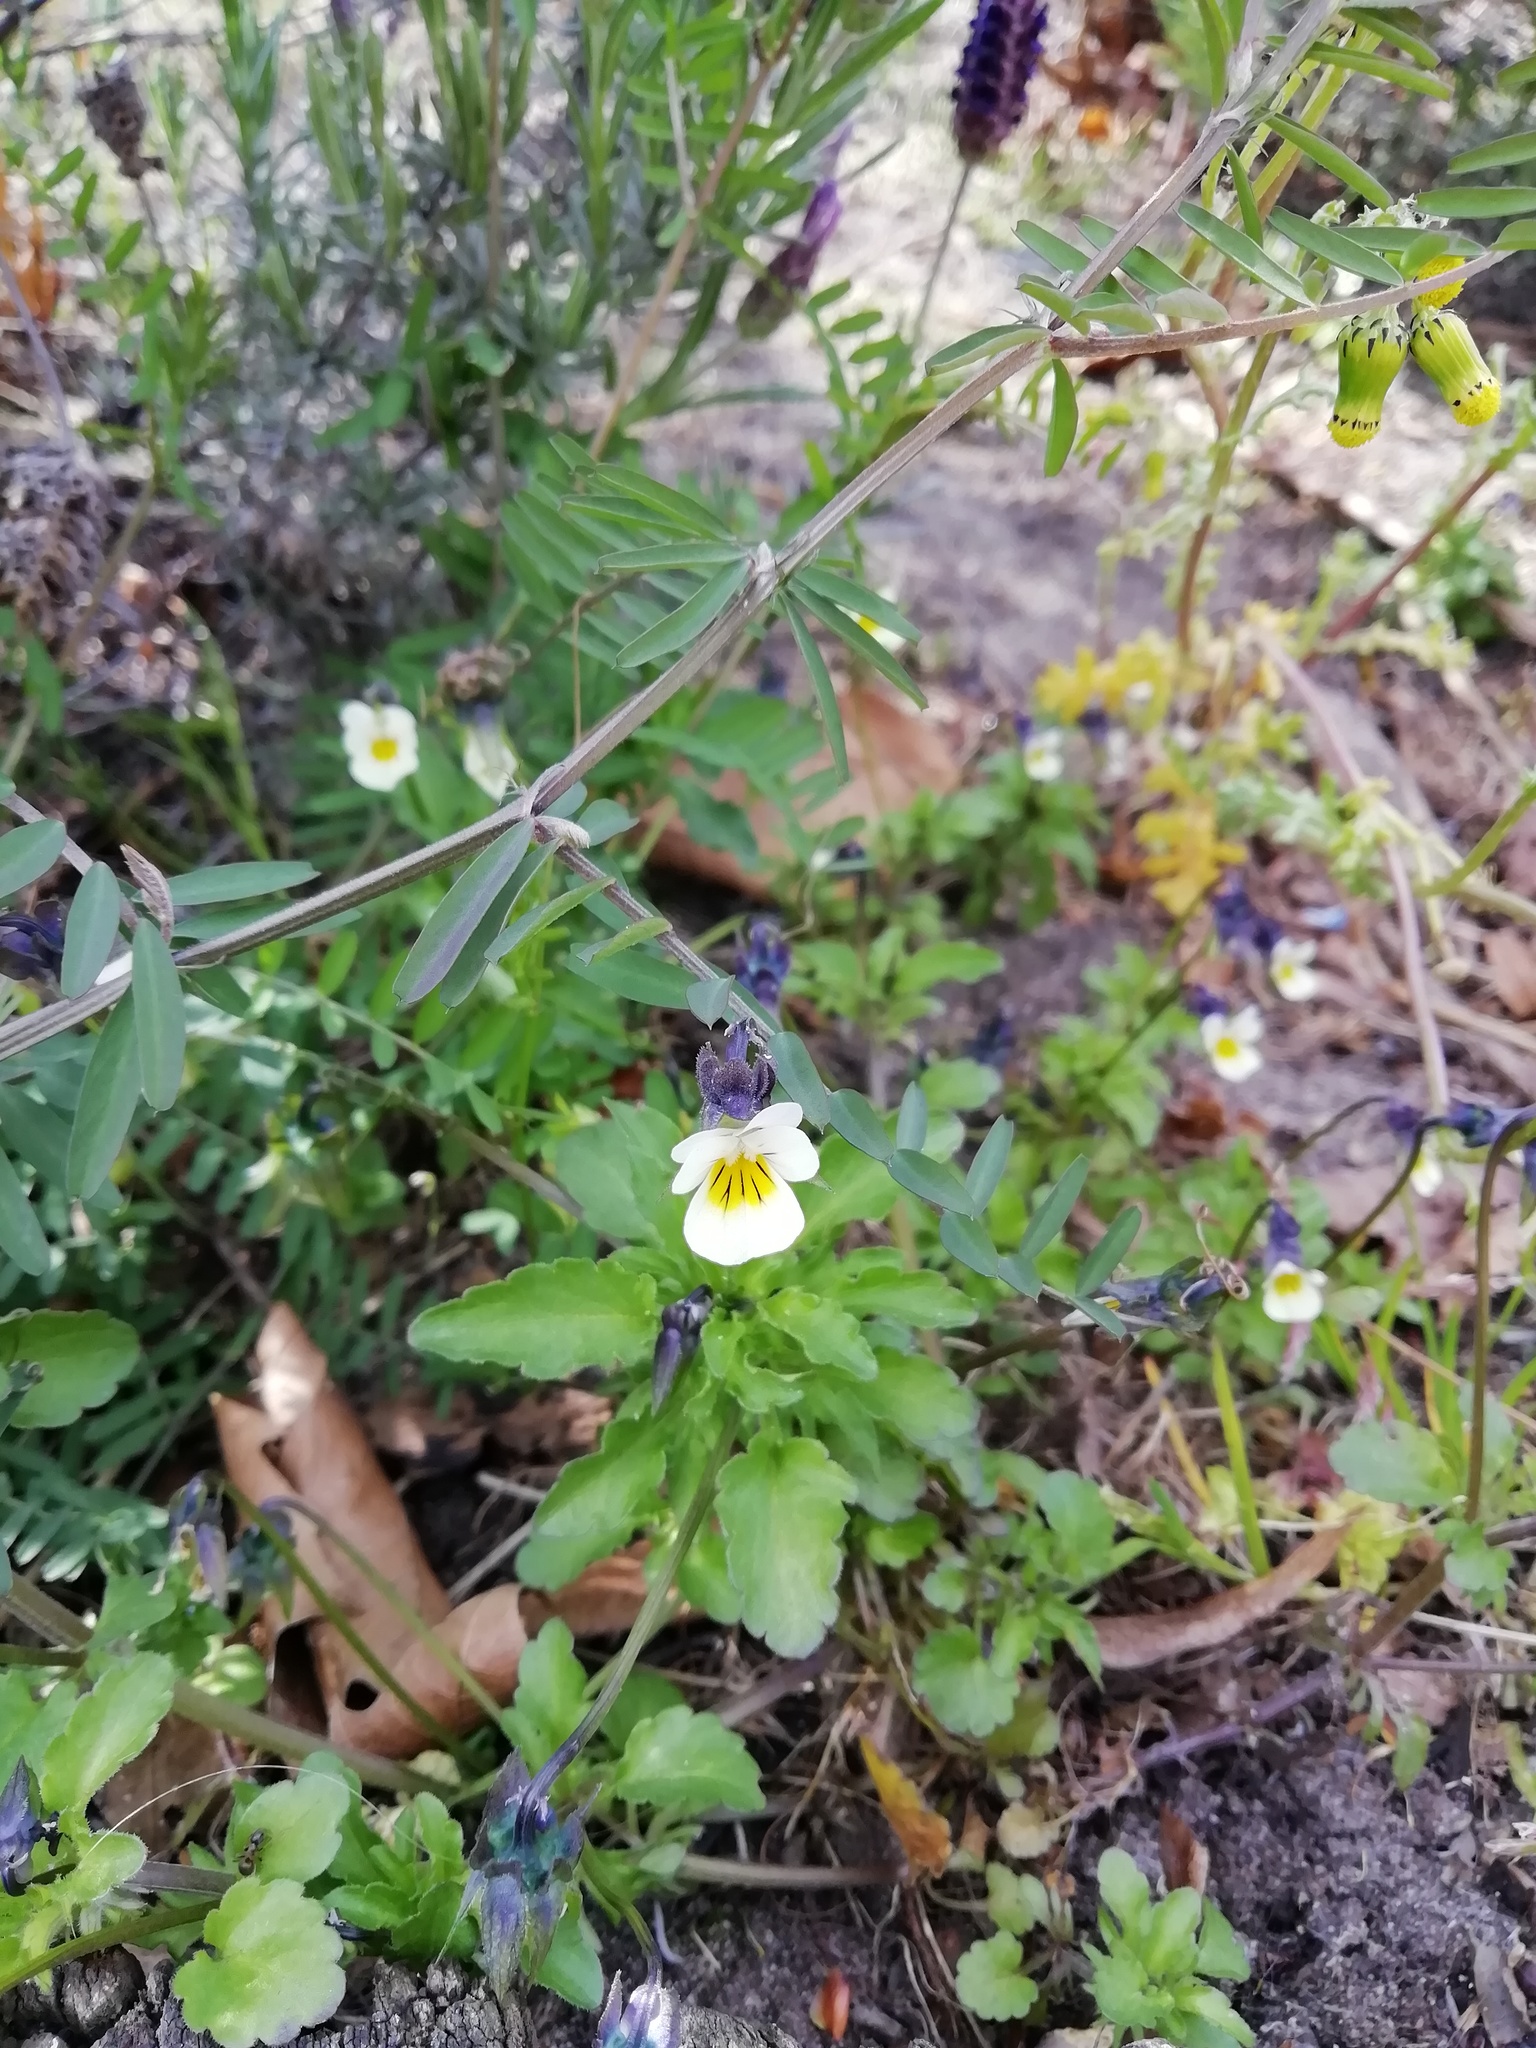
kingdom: Plantae
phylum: Tracheophyta
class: Magnoliopsida
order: Malpighiales
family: Violaceae
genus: Viola
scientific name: Viola arvensis
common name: Field pansy
